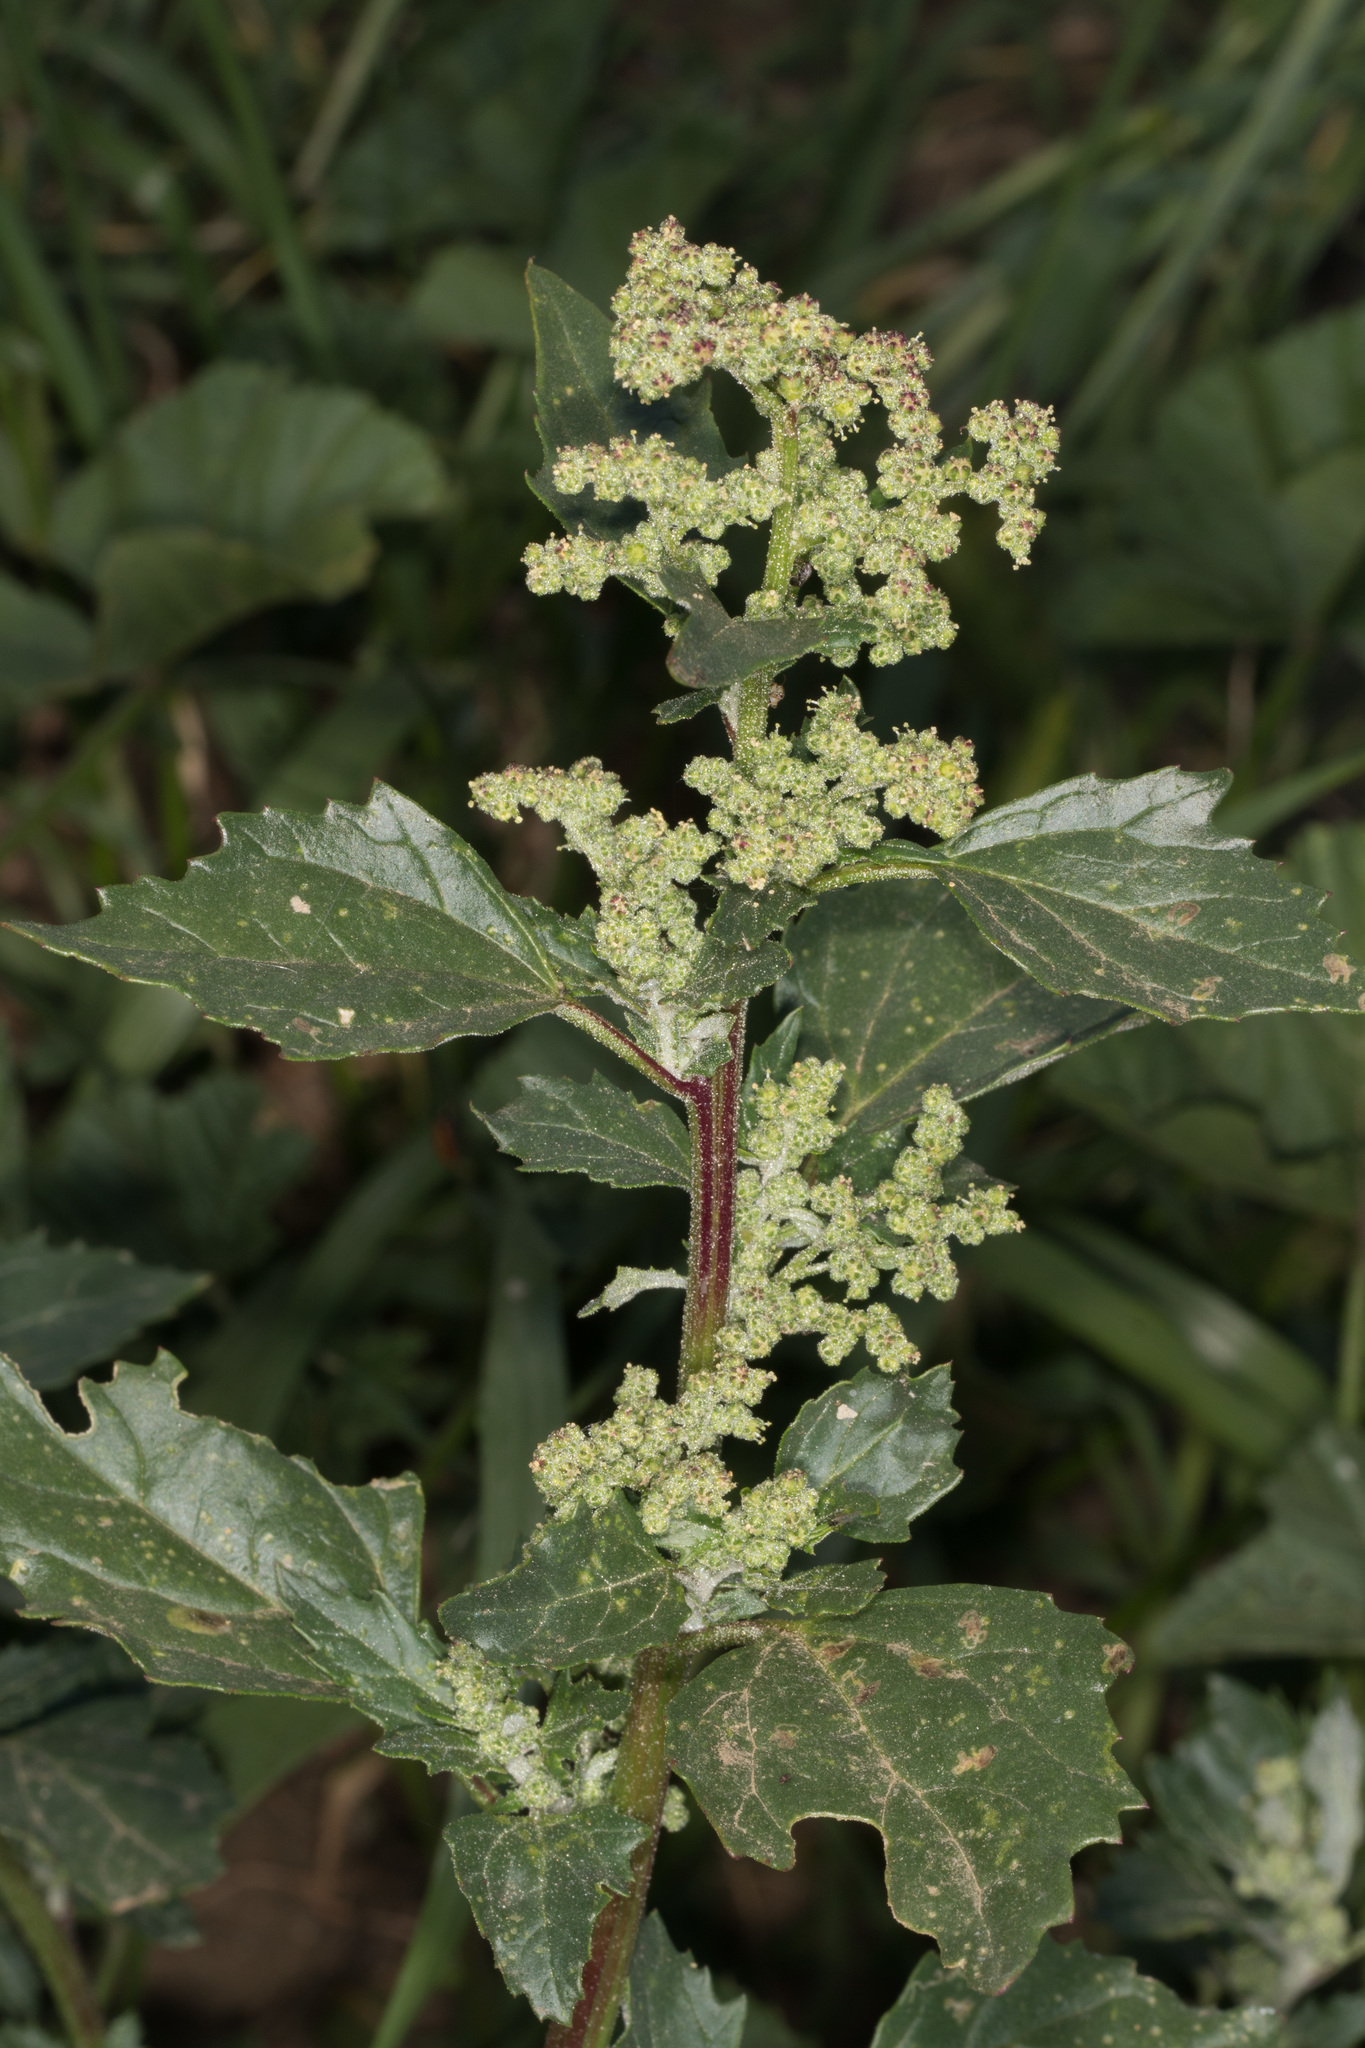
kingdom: Plantae
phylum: Tracheophyta
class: Magnoliopsida
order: Caryophyllales
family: Amaranthaceae
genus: Chenopodiastrum
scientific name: Chenopodiastrum murale
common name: Sowbane
